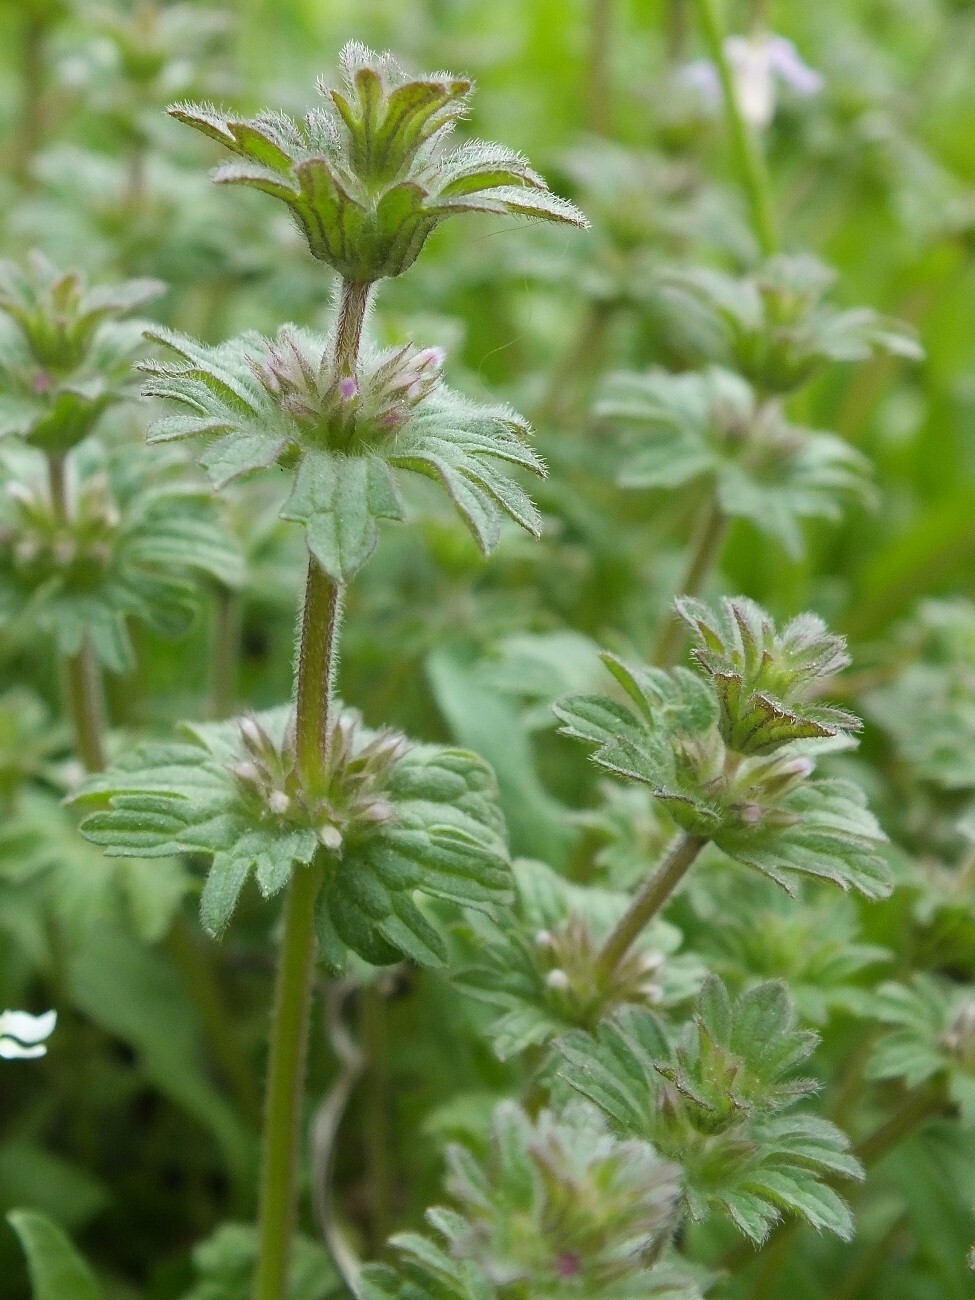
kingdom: Plantae
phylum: Tracheophyta
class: Magnoliopsida
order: Lamiales
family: Lamiaceae
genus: Lamium
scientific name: Lamium amplexicaule
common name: Henbit dead-nettle
